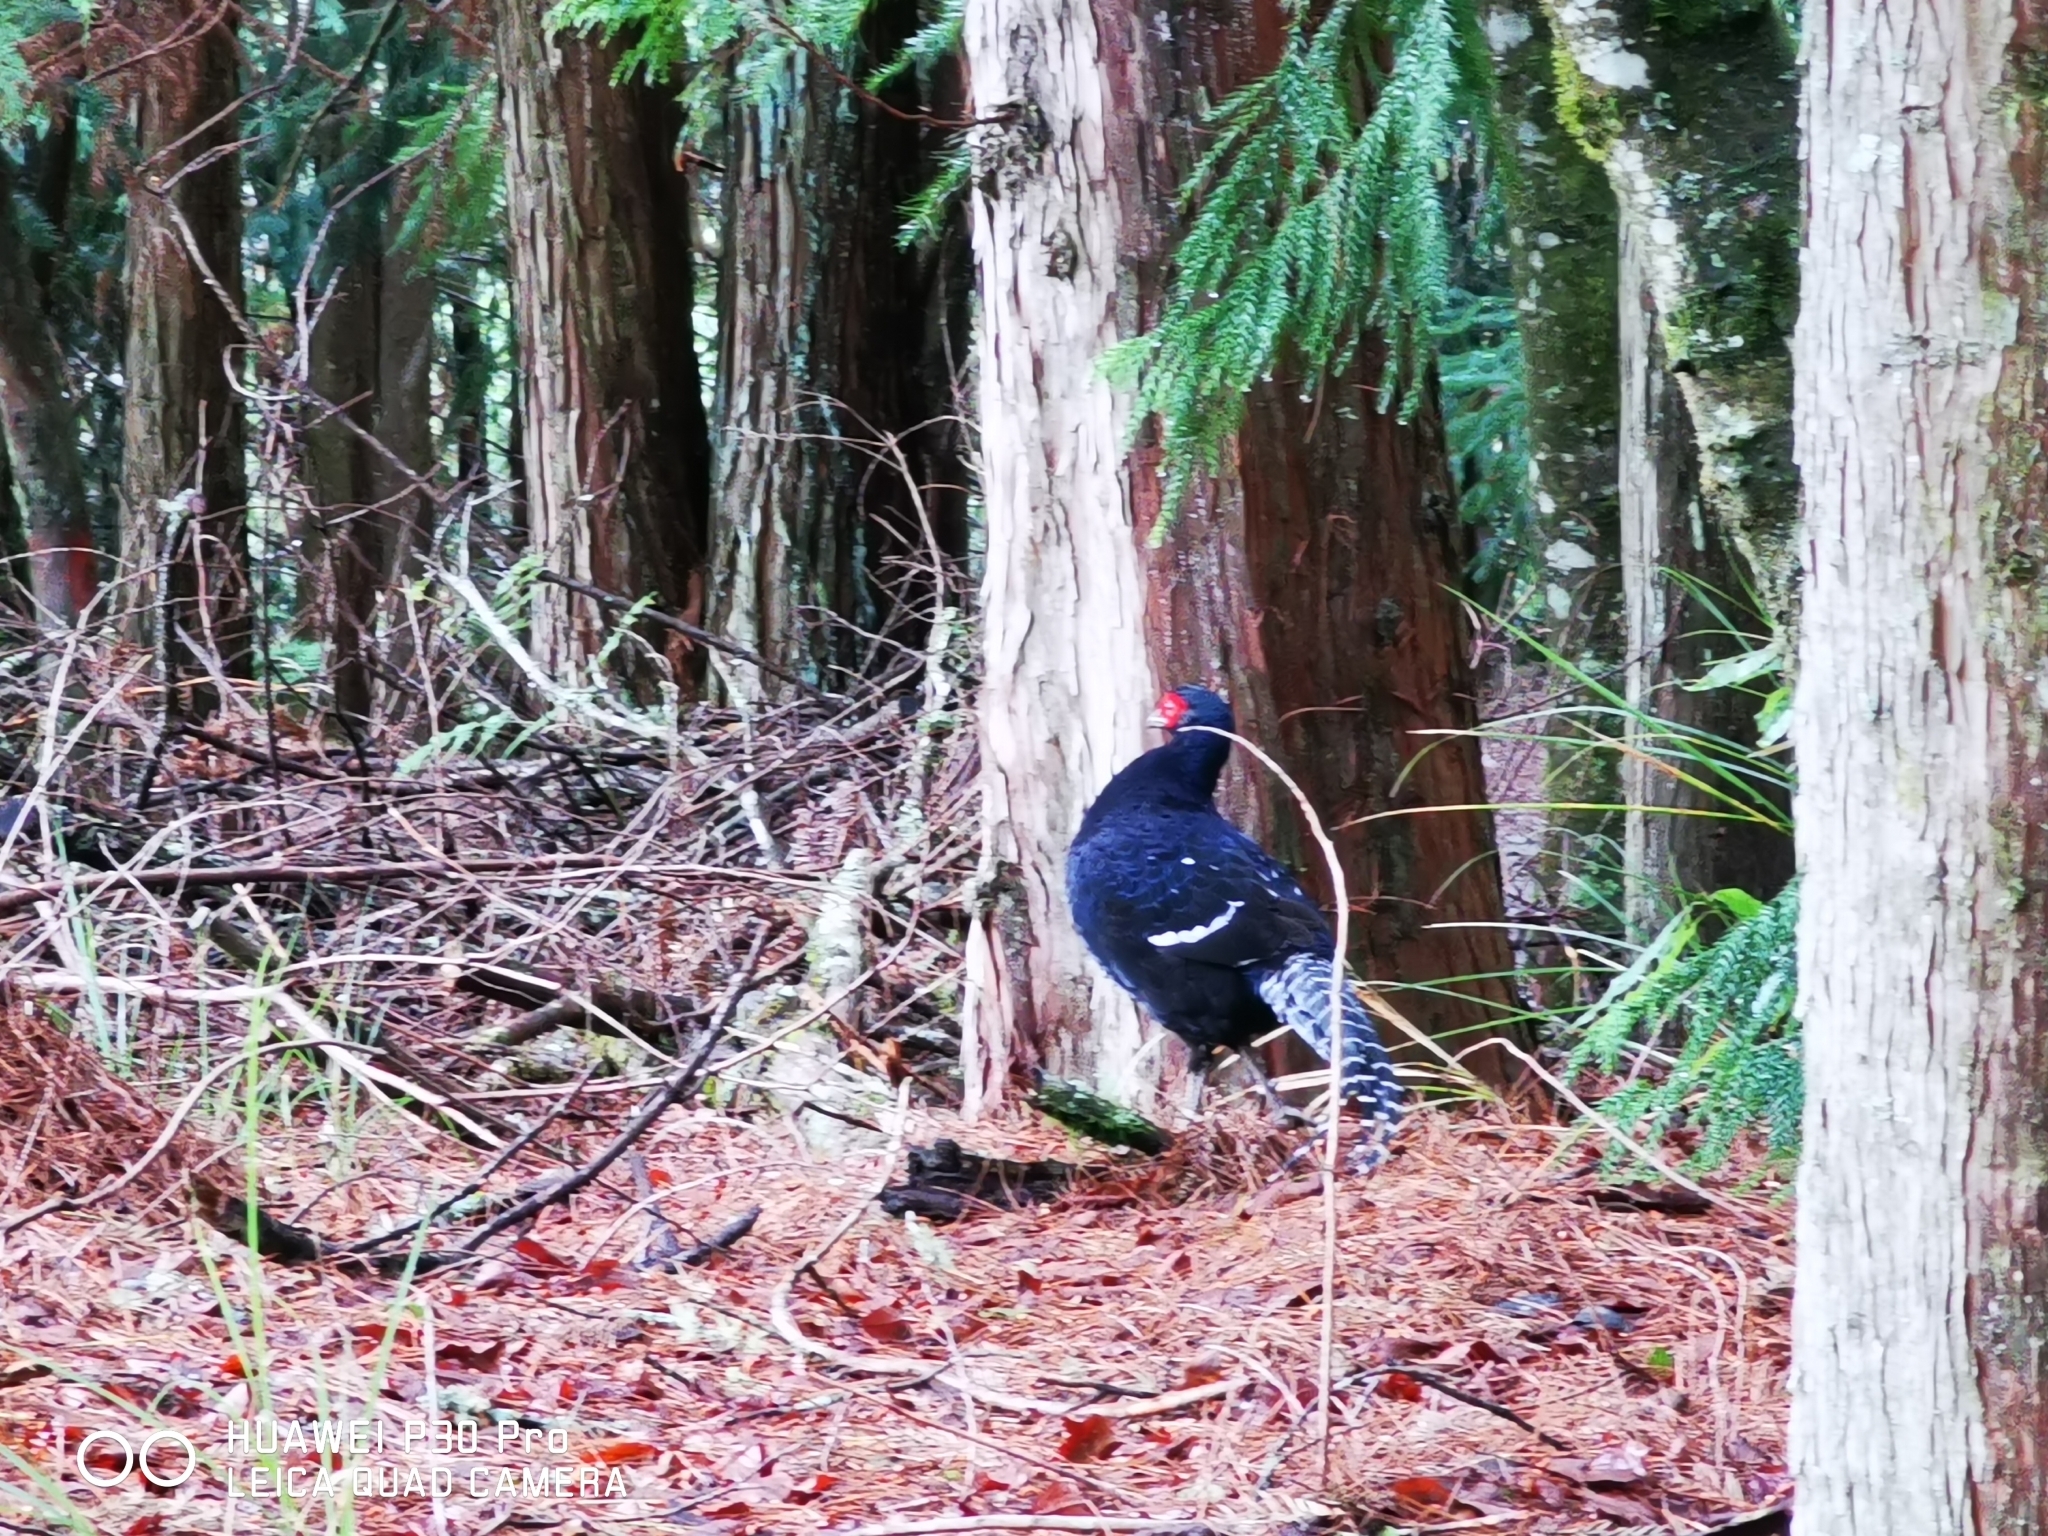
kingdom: Animalia
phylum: Chordata
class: Aves
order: Galliformes
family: Phasianidae
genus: Syrmaticus
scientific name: Syrmaticus mikado
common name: Mikado pheasant
